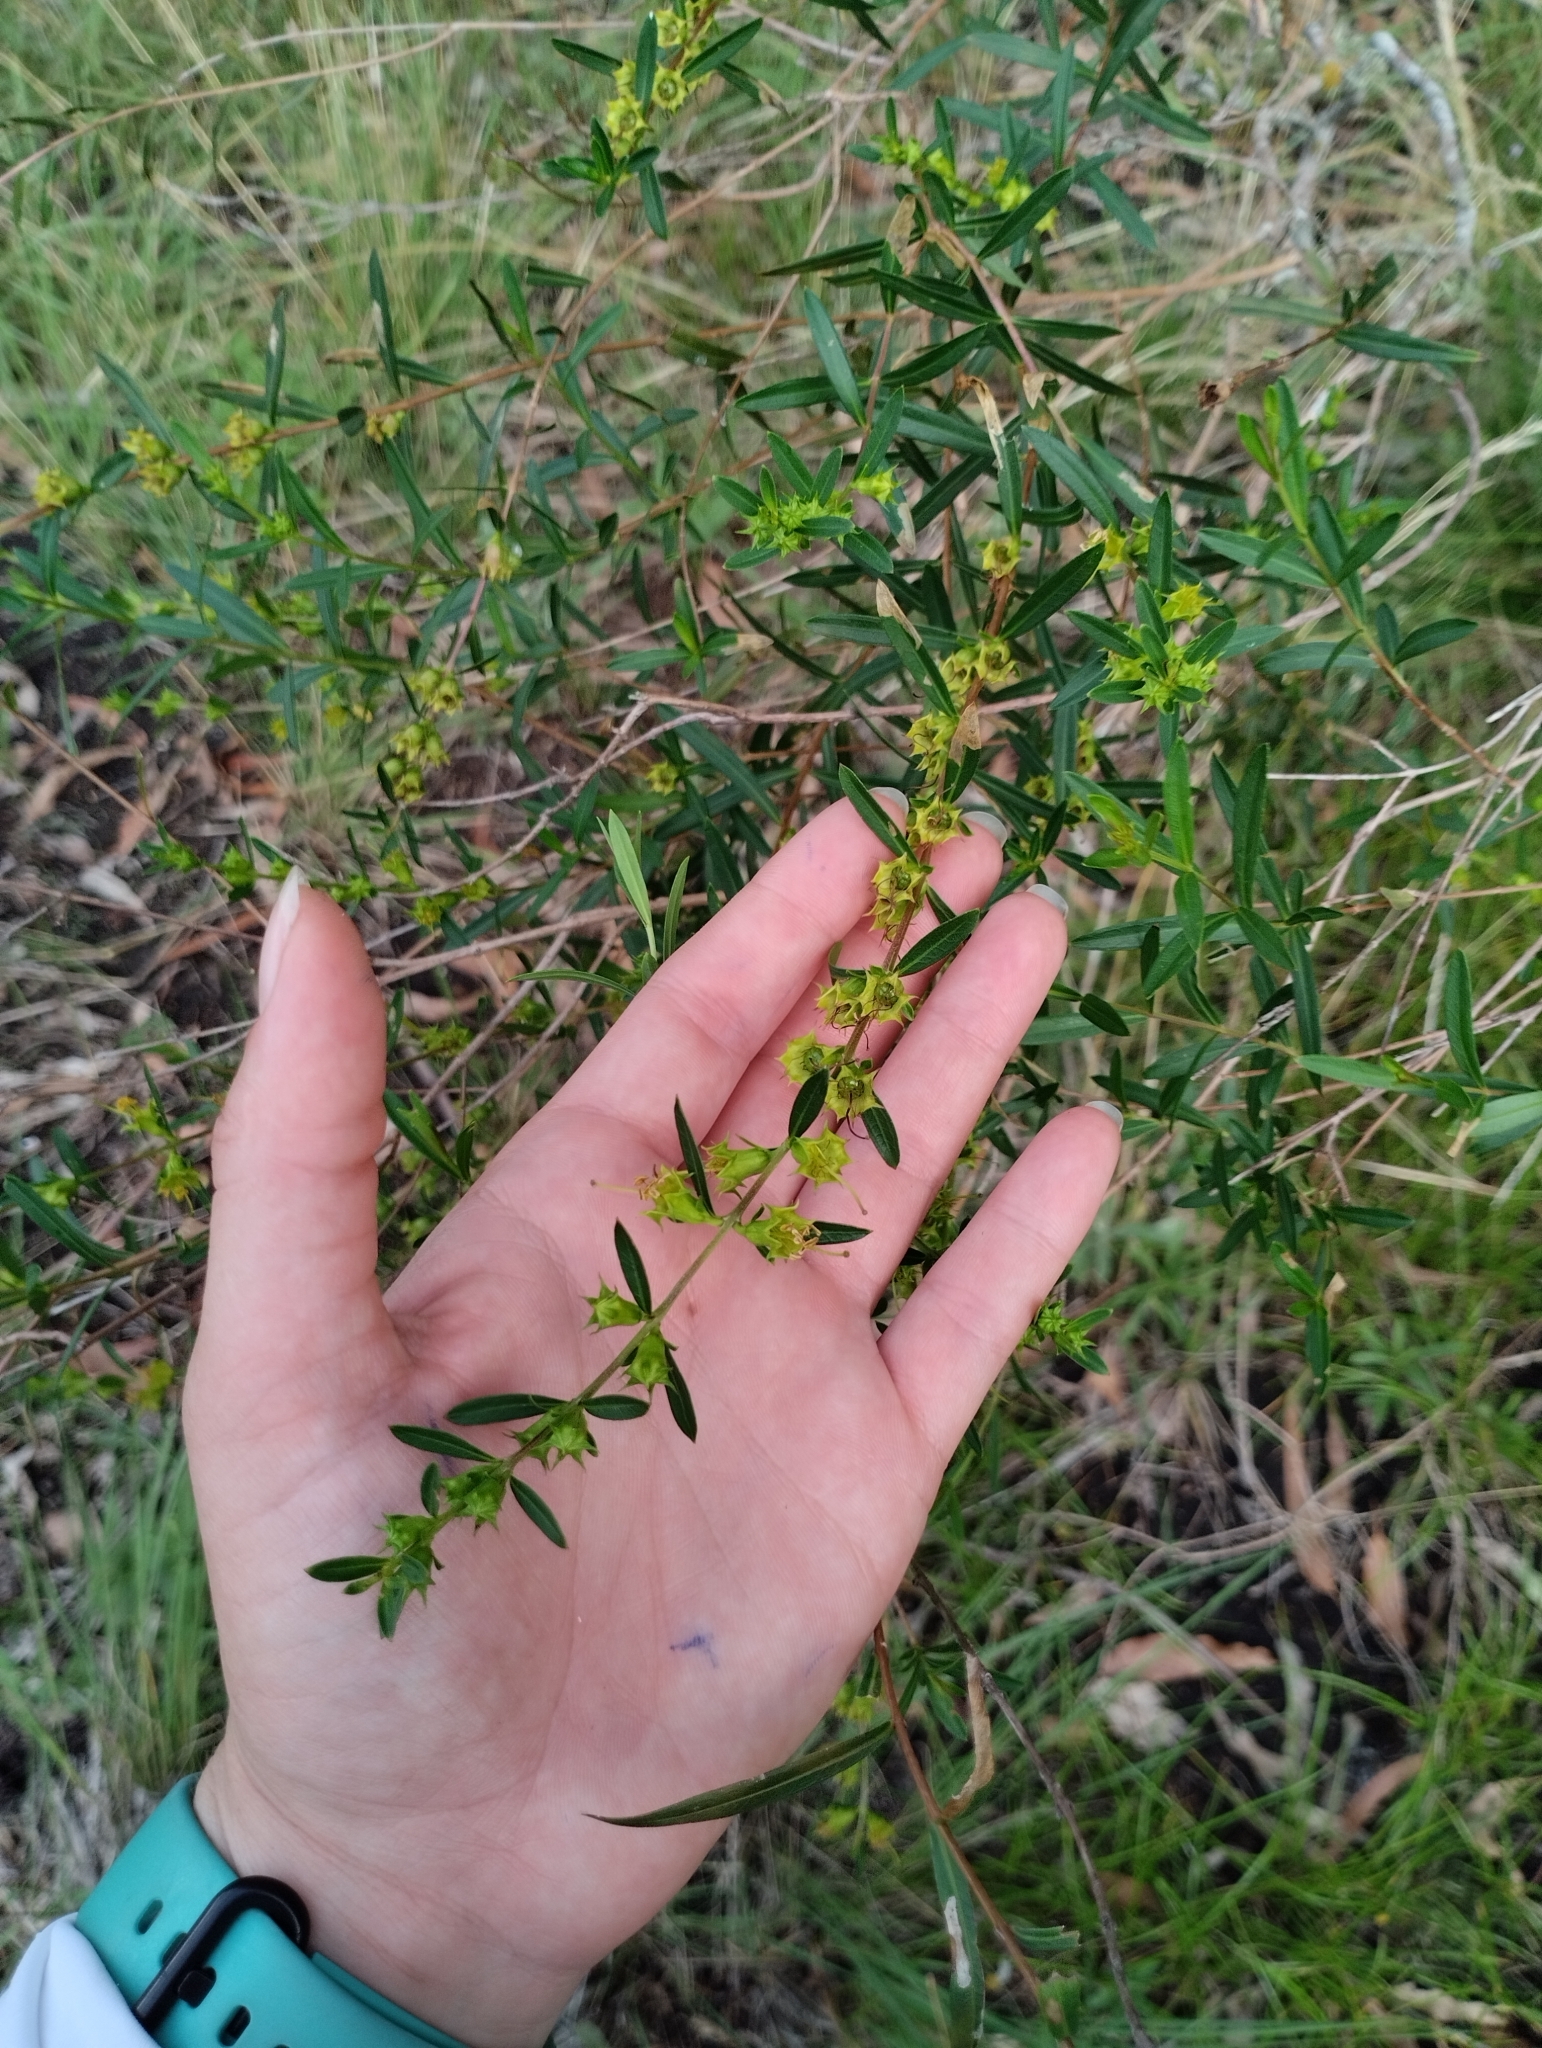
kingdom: Plantae
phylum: Tracheophyta
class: Magnoliopsida
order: Myrtales
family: Lythraceae
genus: Heimia
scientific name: Heimia salicifolia
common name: Willow-leaf heimia
